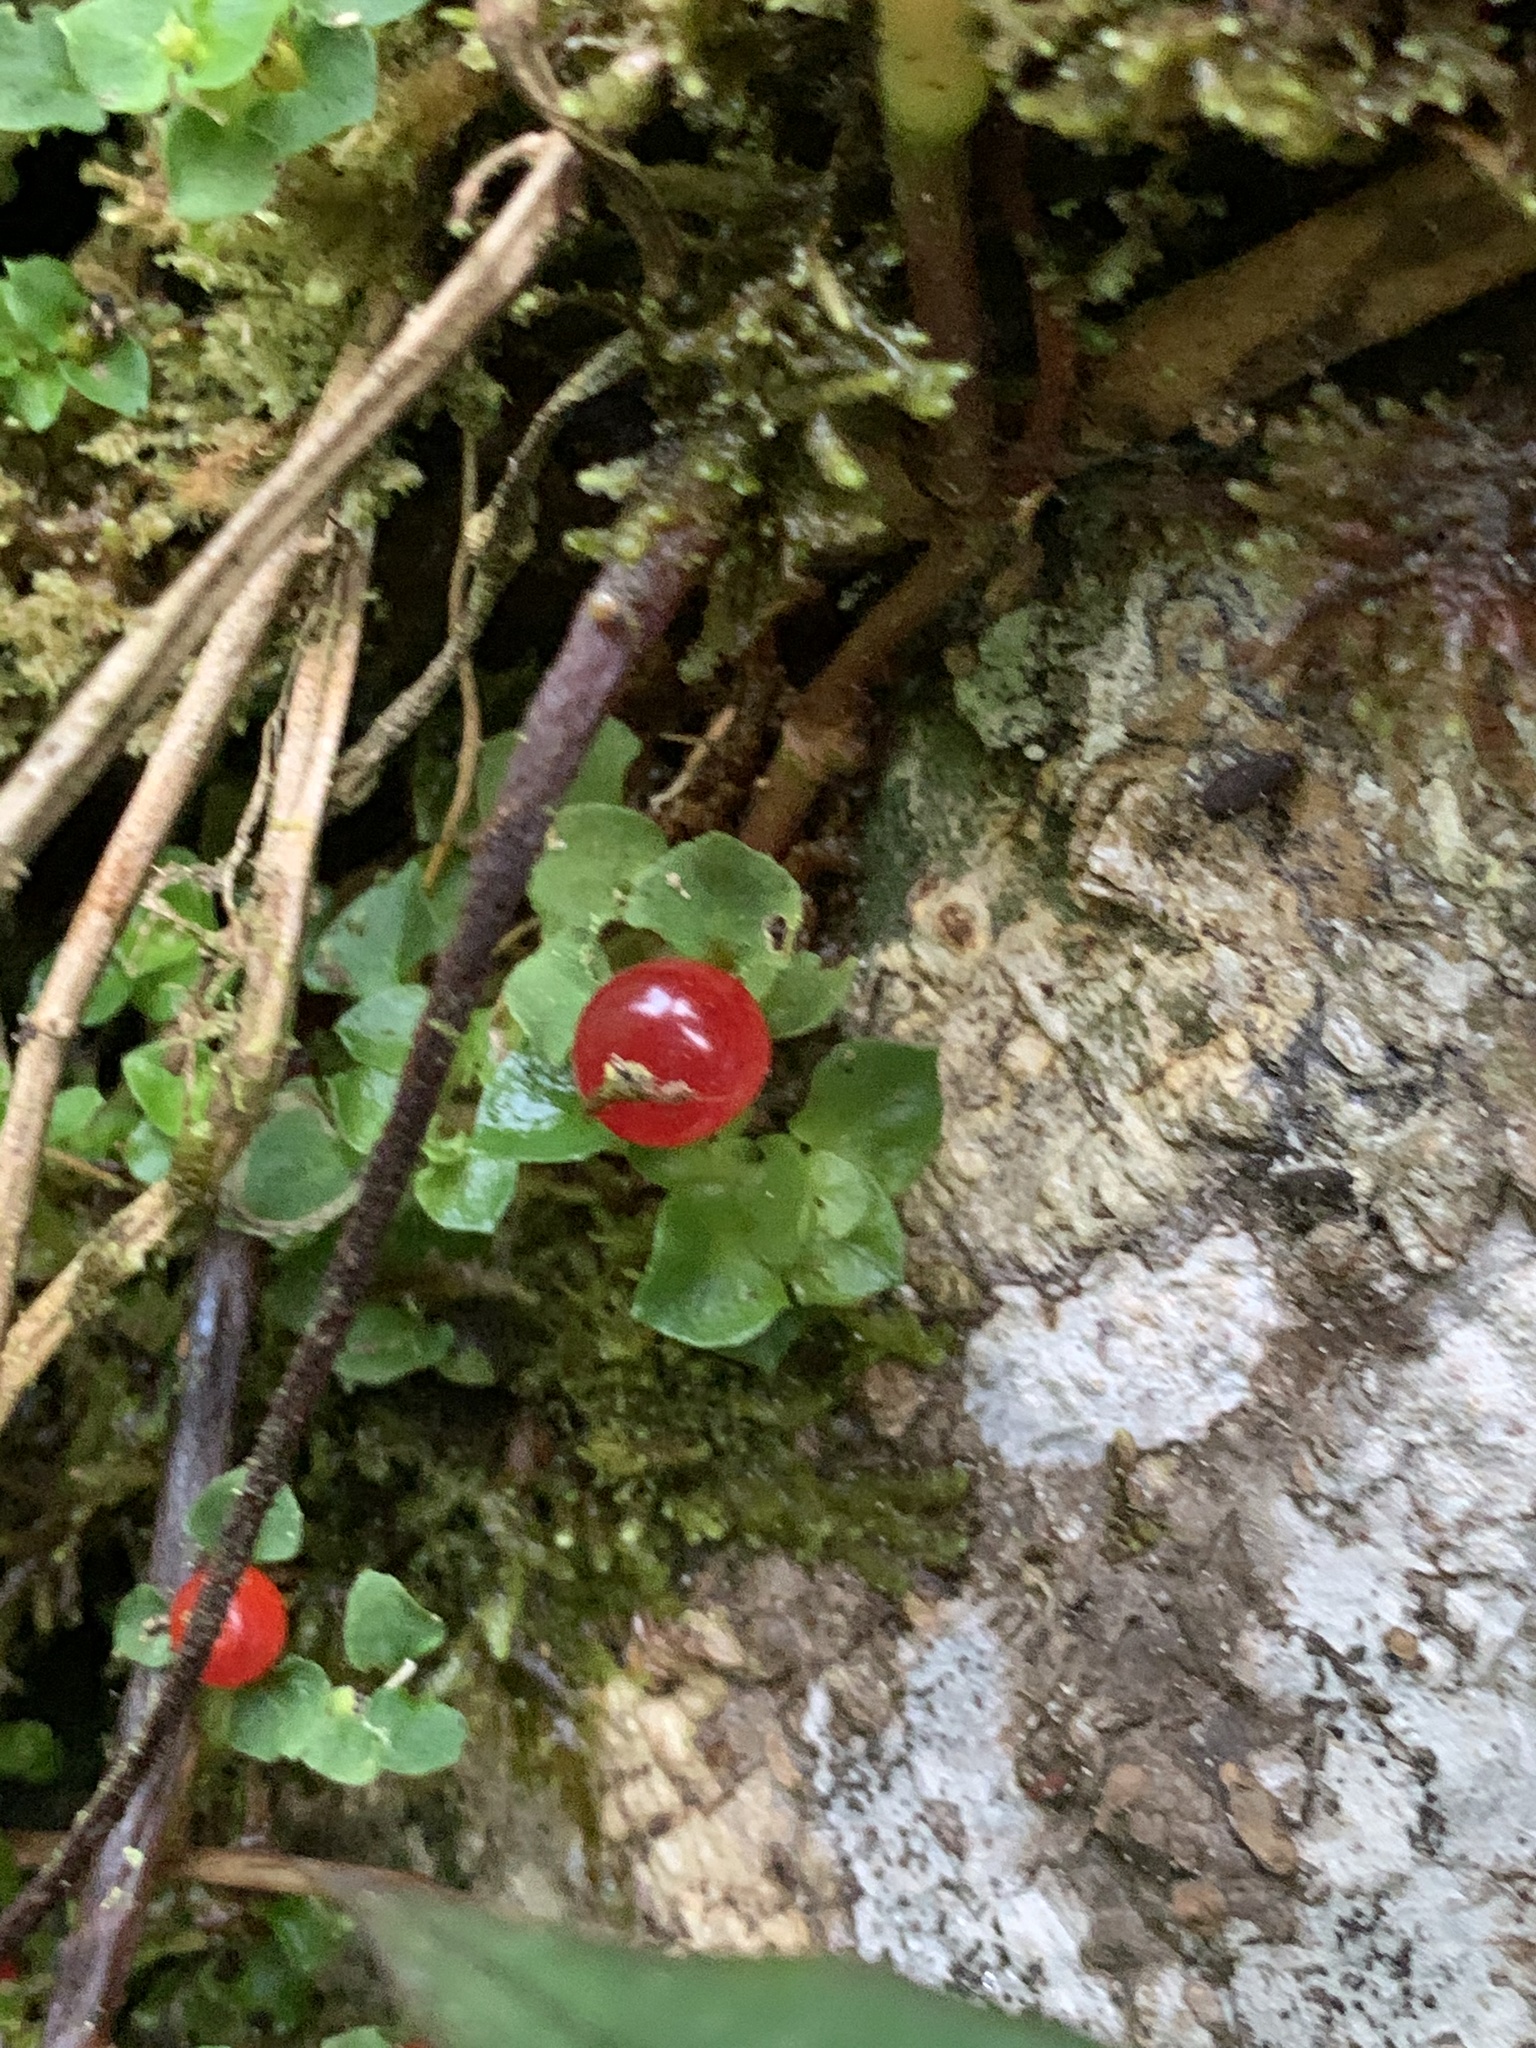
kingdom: Plantae
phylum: Tracheophyta
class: Magnoliopsida
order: Gentianales
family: Rubiaceae
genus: Nertera
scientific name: Nertera granadensis
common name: Beadplant
